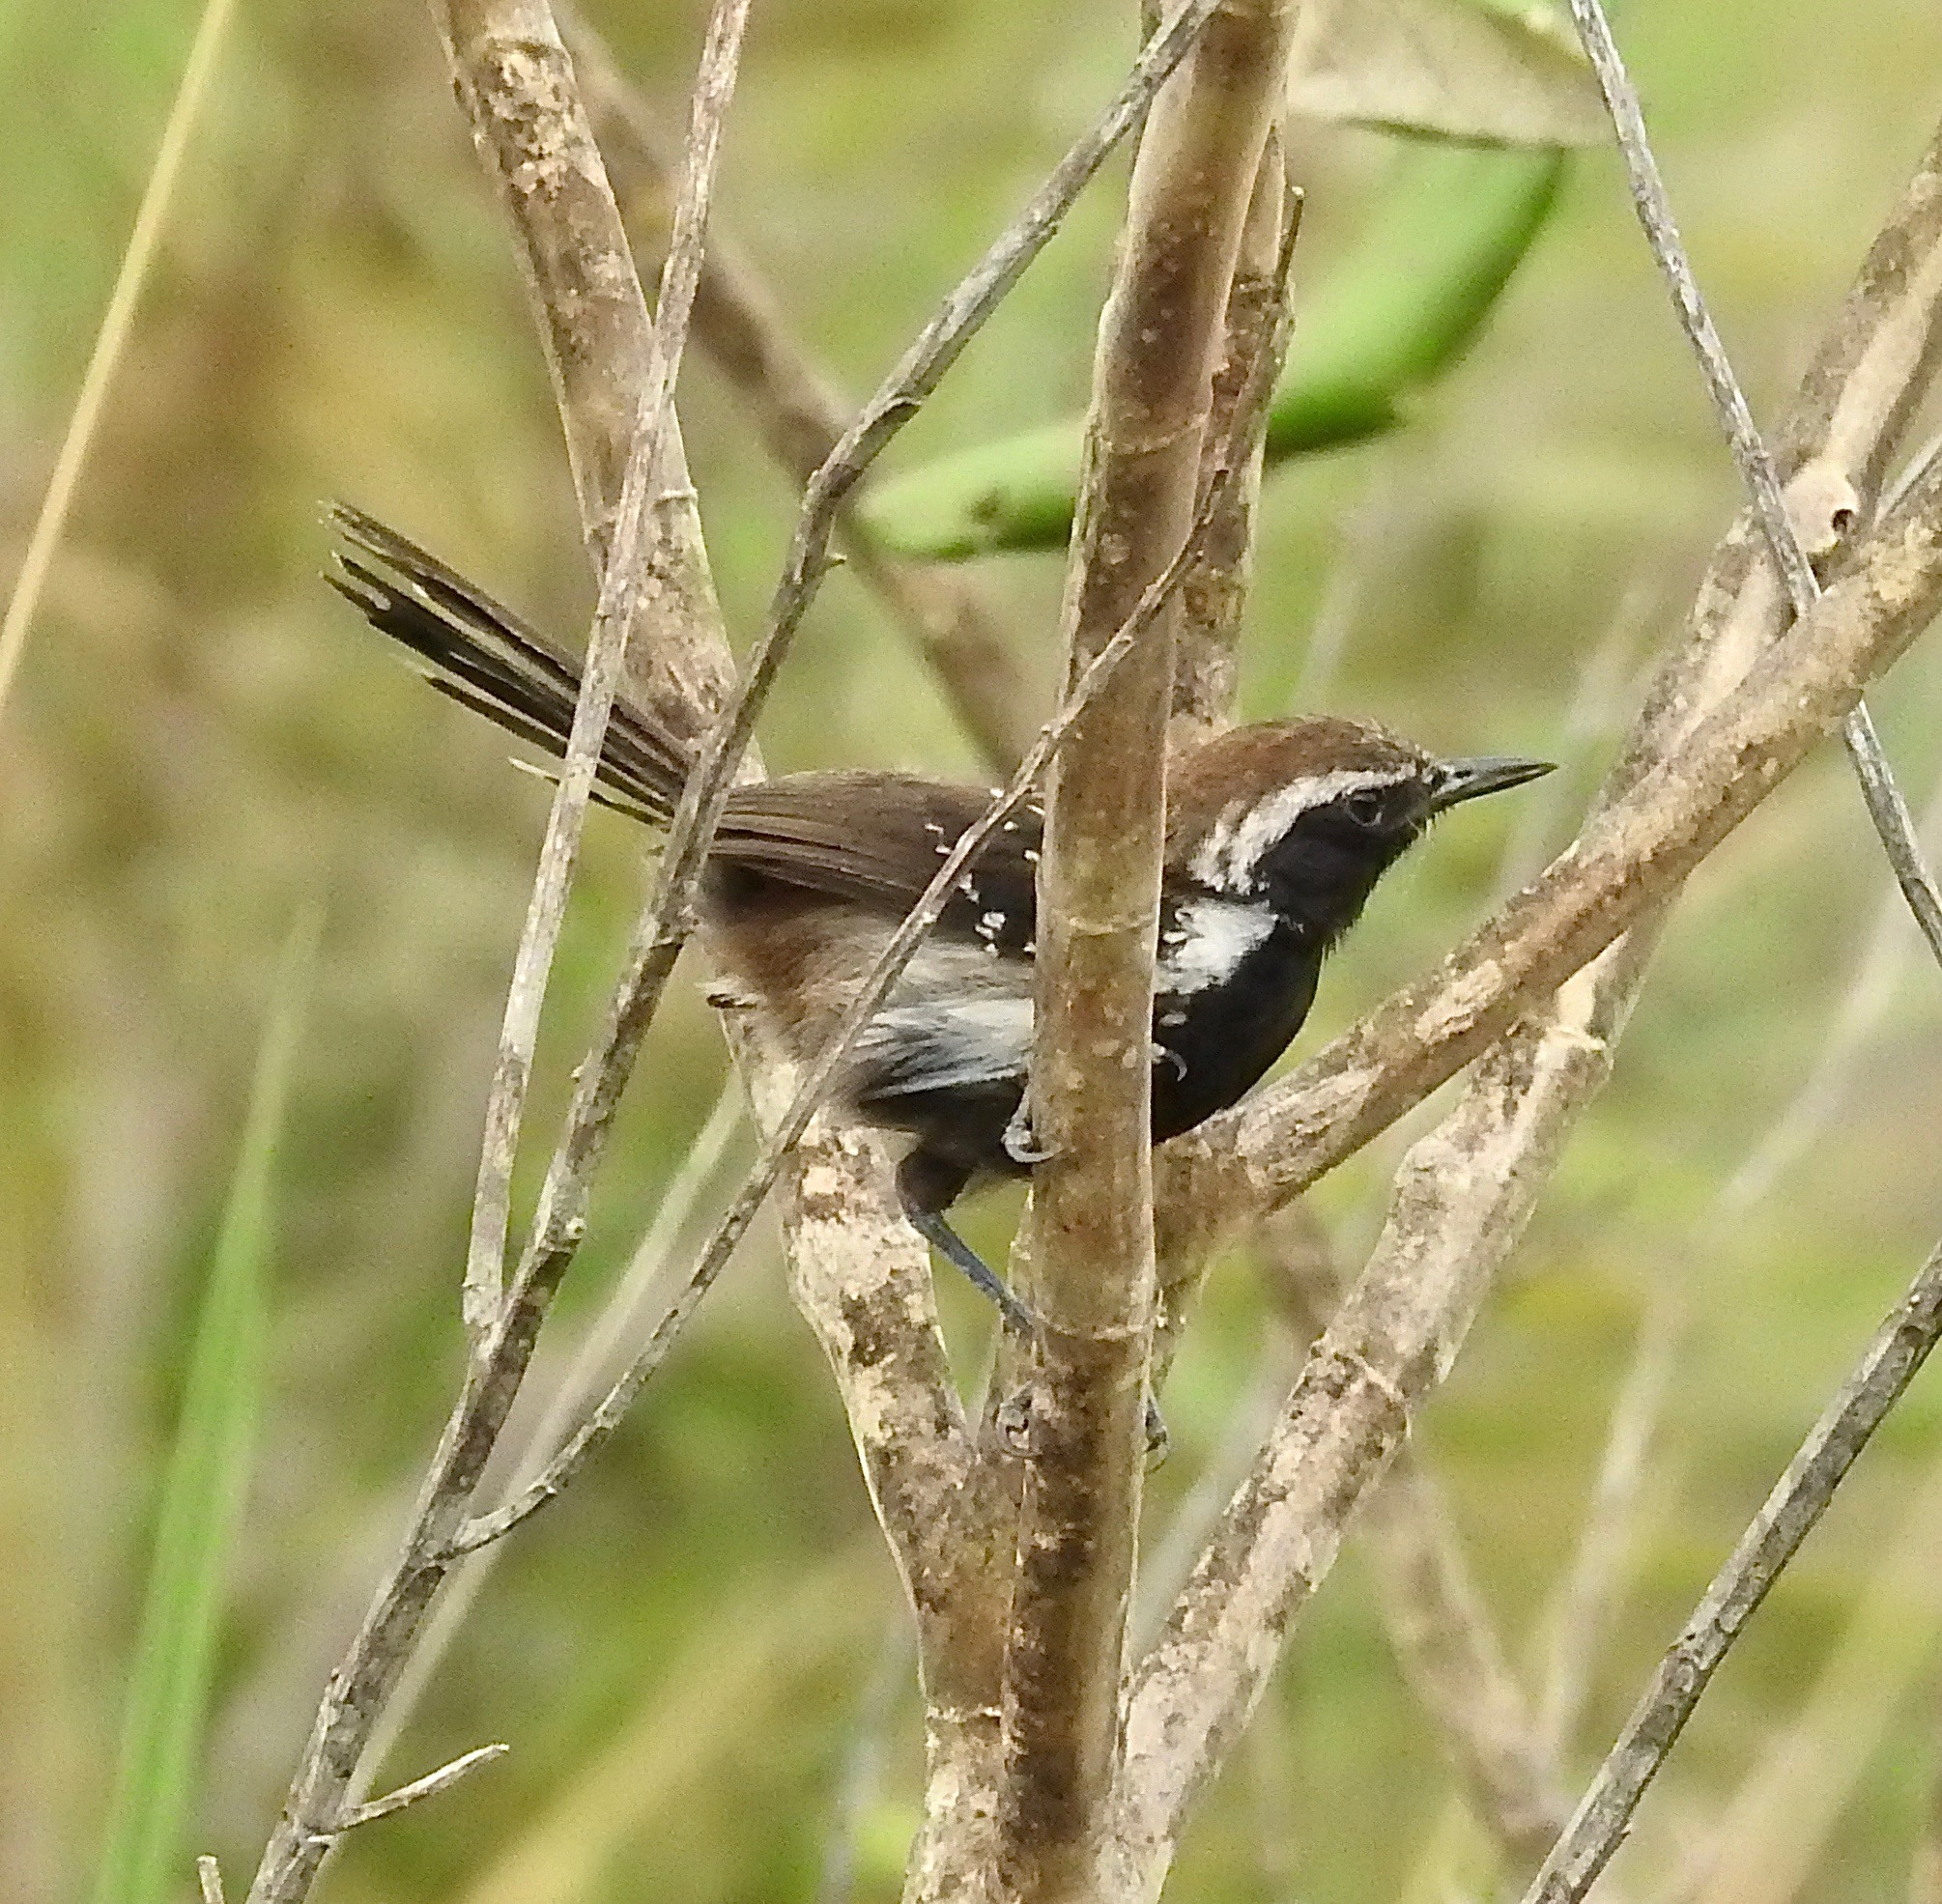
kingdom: Animalia
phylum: Chordata
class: Aves
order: Passeriformes
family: Thamnophilidae
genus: Formicivora
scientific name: Formicivora grantsaui
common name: Sincora antwren
